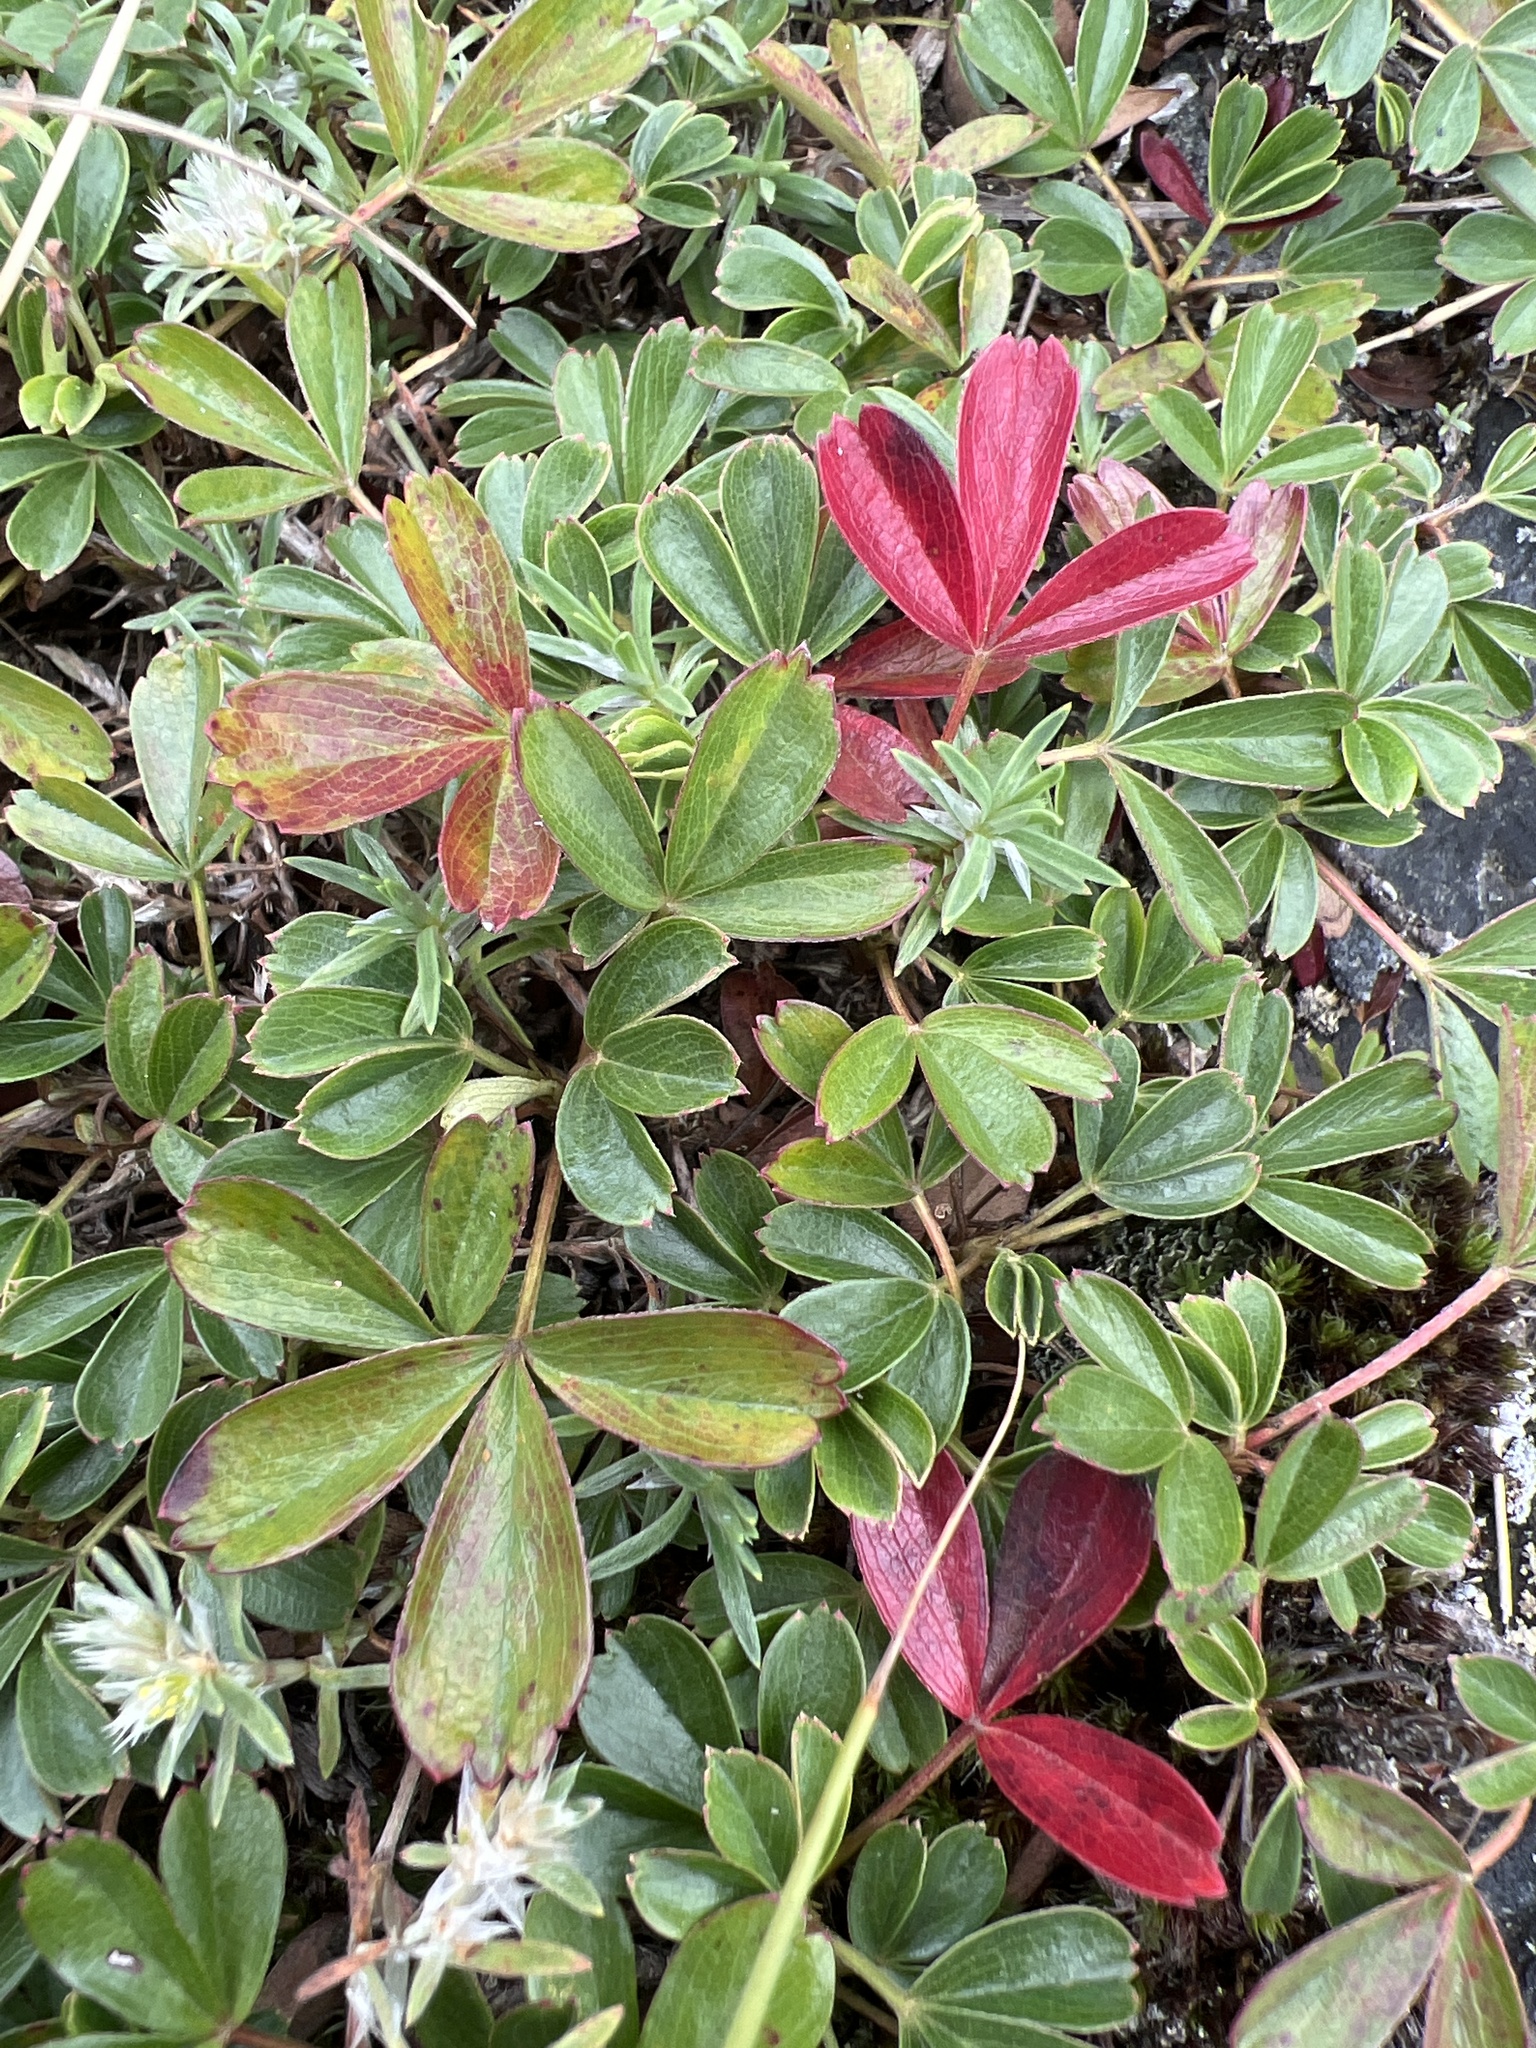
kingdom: Plantae
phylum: Tracheophyta
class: Magnoliopsida
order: Rosales
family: Rosaceae
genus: Sibbaldia
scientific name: Sibbaldia tridentata
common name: Three-toothed cinquefoil
